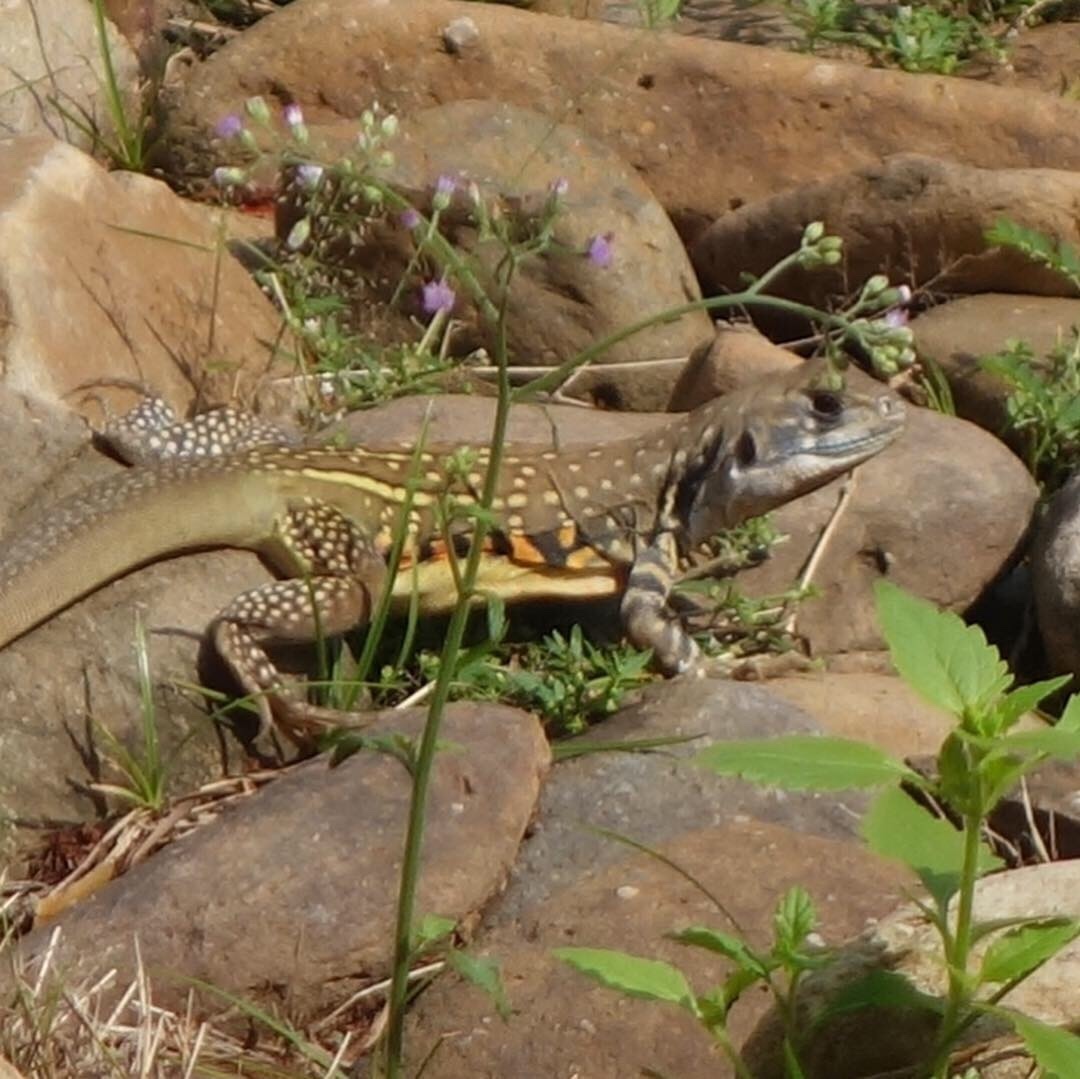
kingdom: Animalia
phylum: Chordata
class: Squamata
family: Agamidae
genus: Leiolepis
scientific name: Leiolepis belliana
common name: Common butterfly lizard
